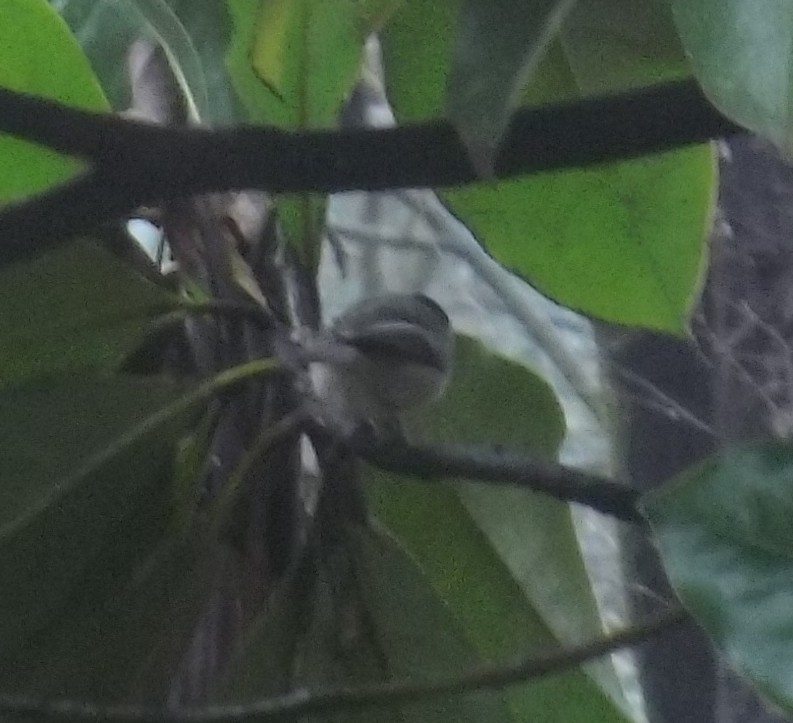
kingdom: Animalia
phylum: Chordata
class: Aves
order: Passeriformes
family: Paridae
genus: Poecile
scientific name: Poecile carolinensis
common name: Carolina chickadee
